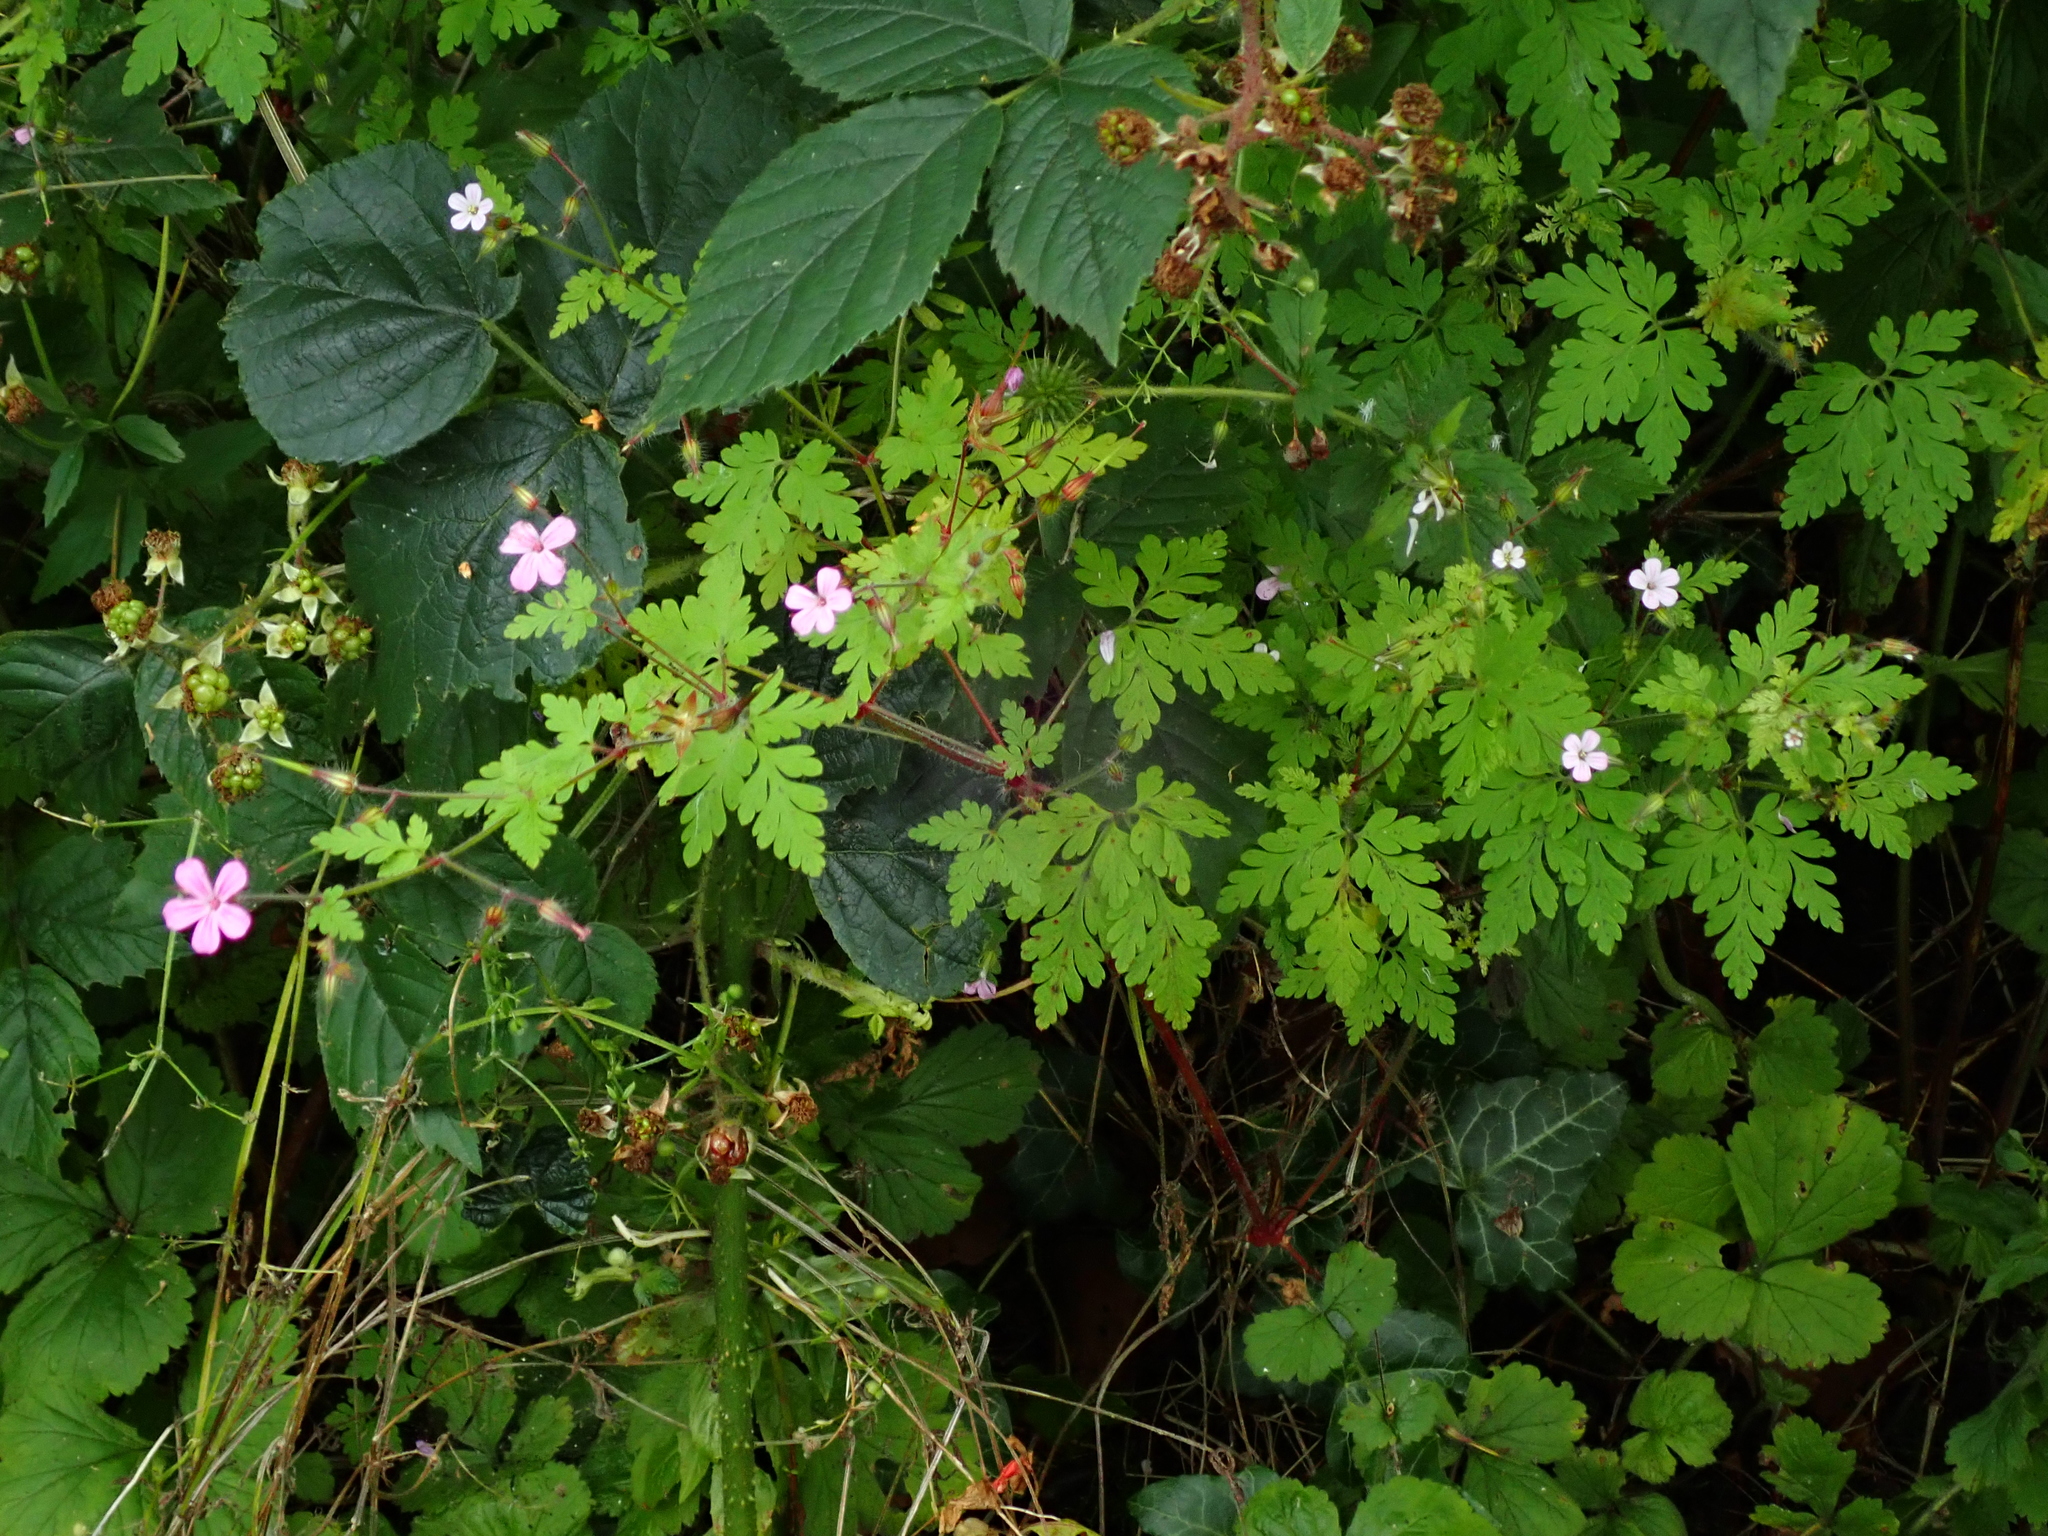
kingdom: Plantae
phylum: Tracheophyta
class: Magnoliopsida
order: Geraniales
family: Geraniaceae
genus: Geranium
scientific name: Geranium robertianum
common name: Herb-robert
